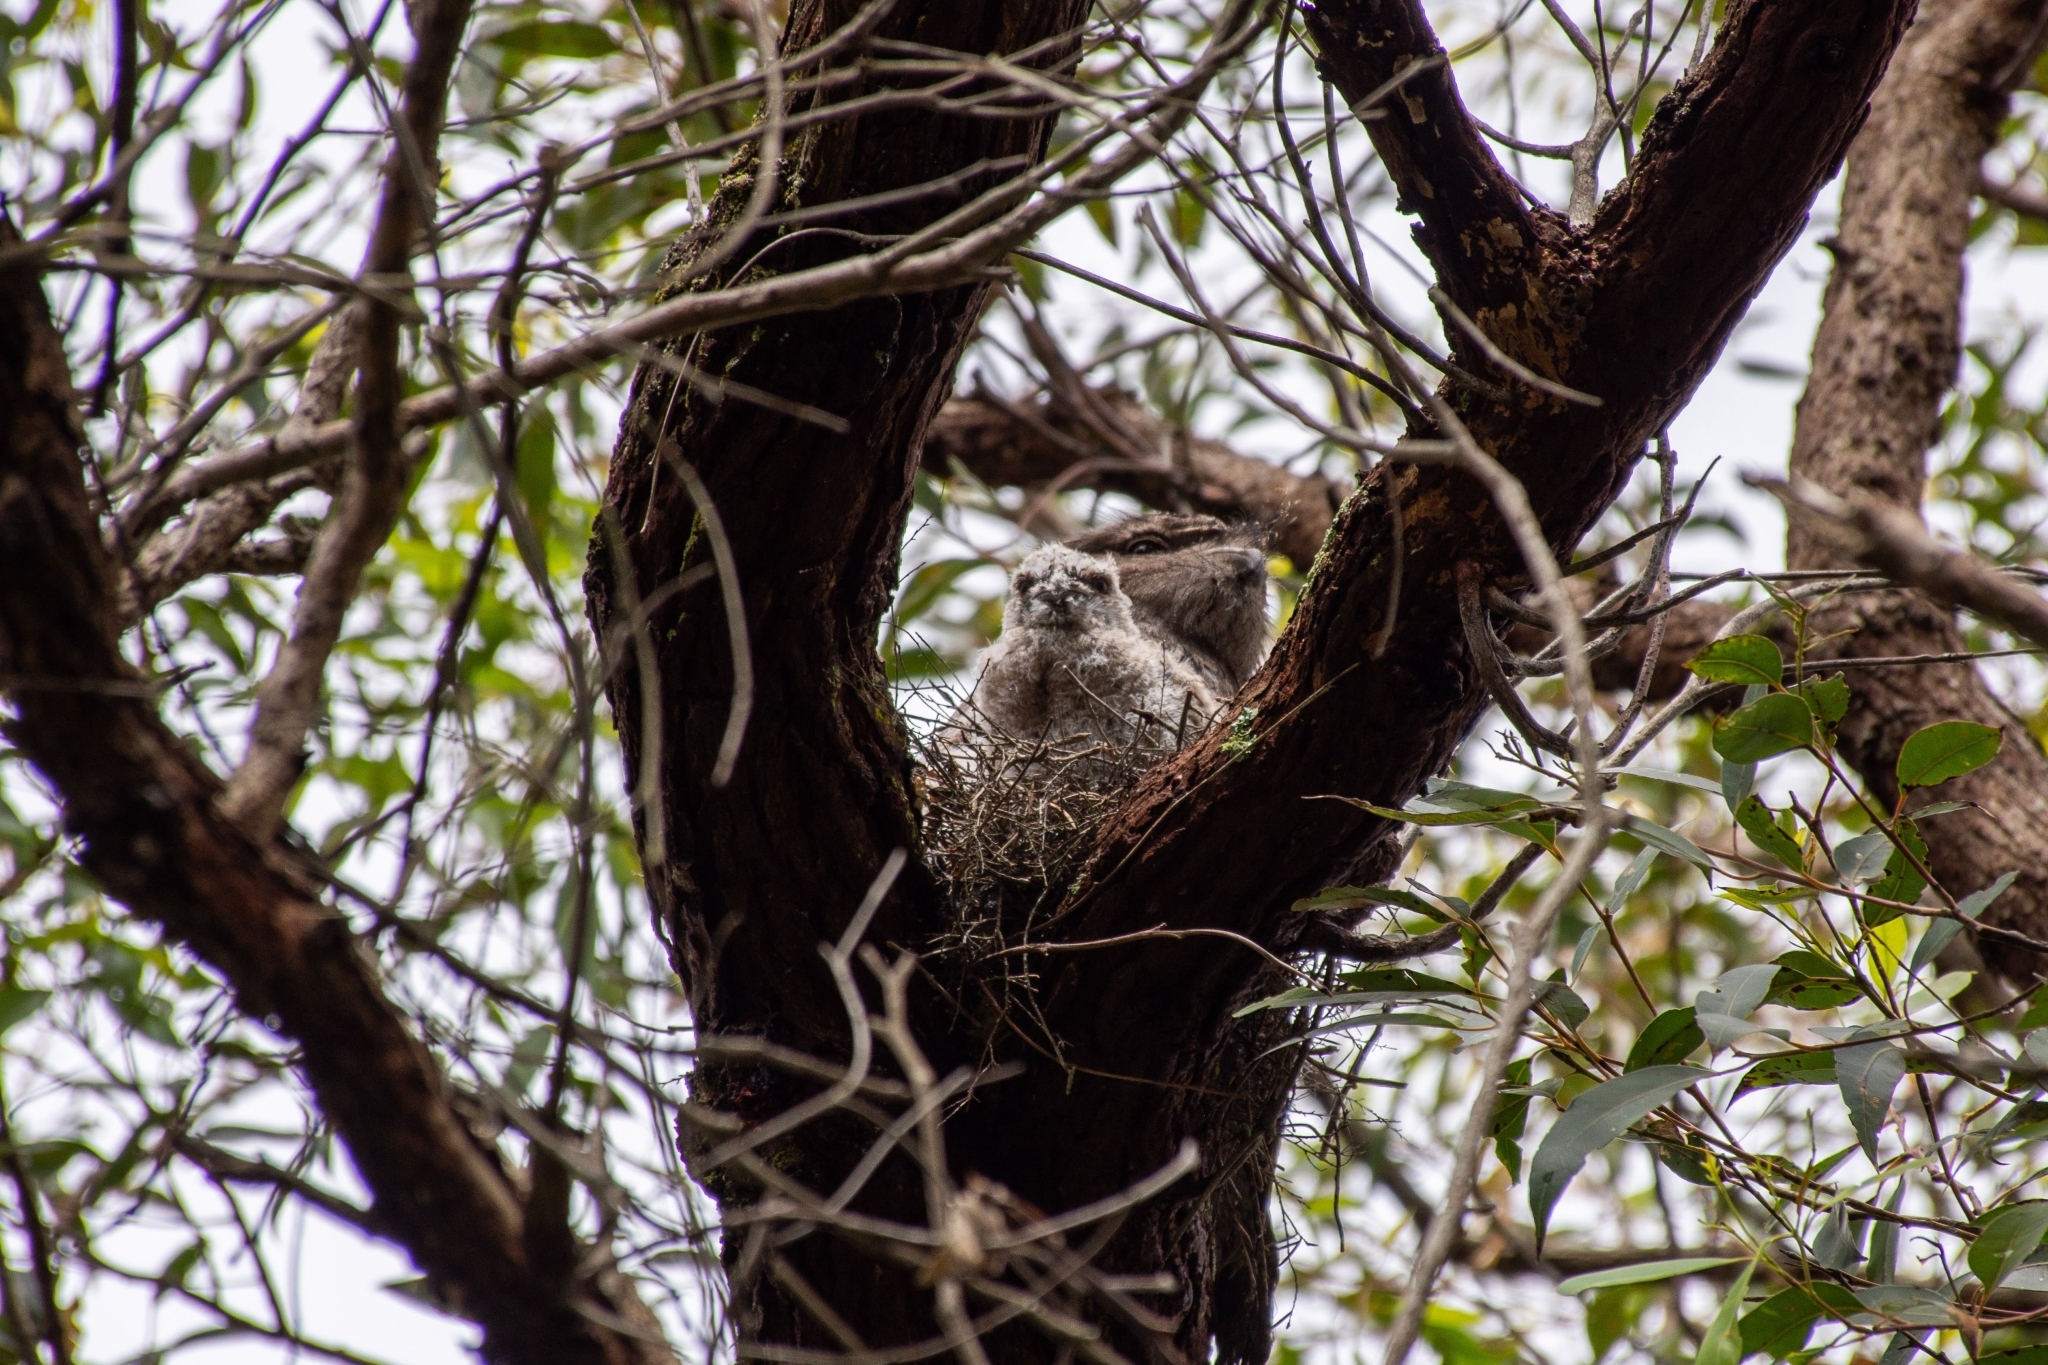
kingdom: Animalia
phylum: Chordata
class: Aves
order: Caprimulgiformes
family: Podargidae
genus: Podargus
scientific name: Podargus strigoides
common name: Tawny frogmouth
